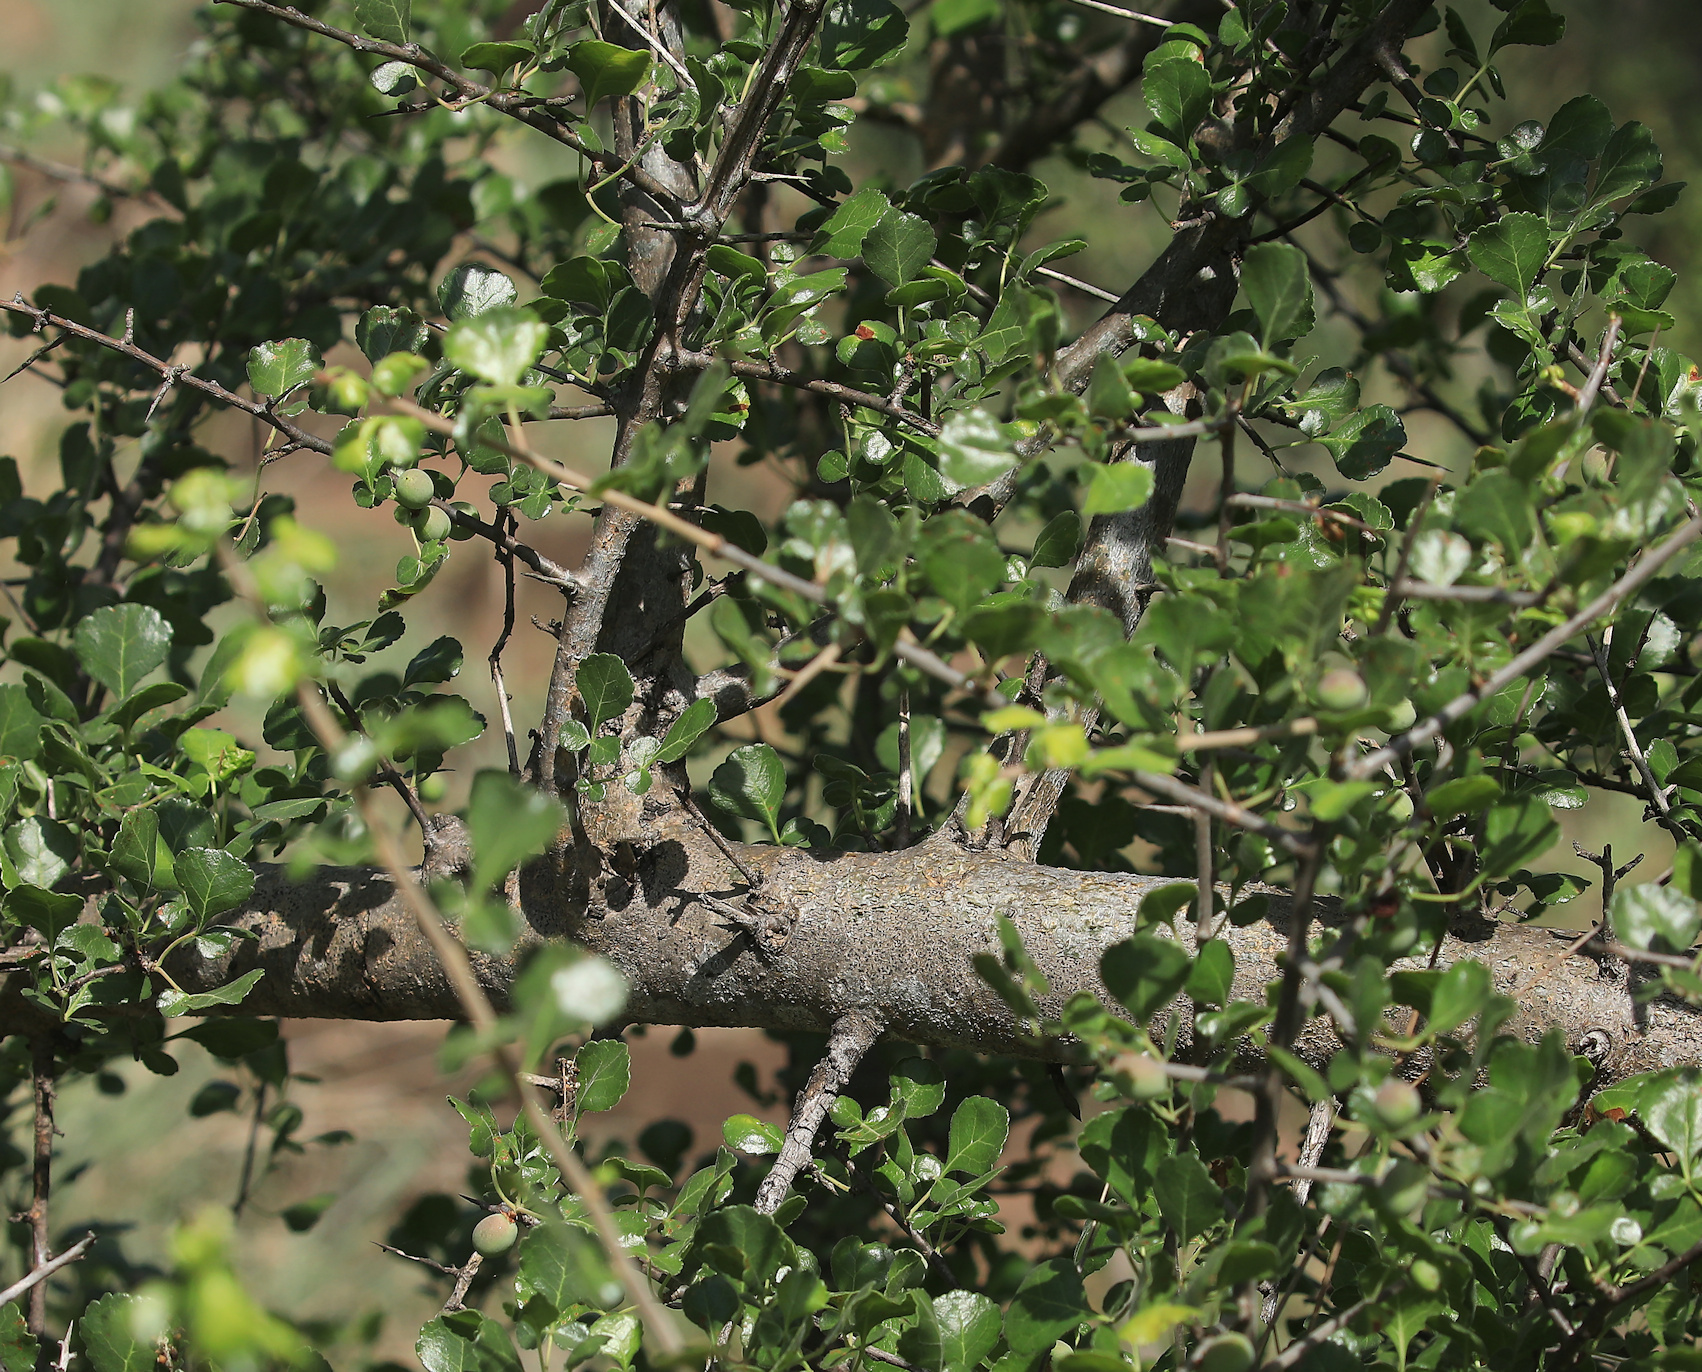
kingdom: Plantae
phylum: Tracheophyta
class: Magnoliopsida
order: Sapindales
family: Burseraceae
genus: Commiphora
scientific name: Commiphora africana
